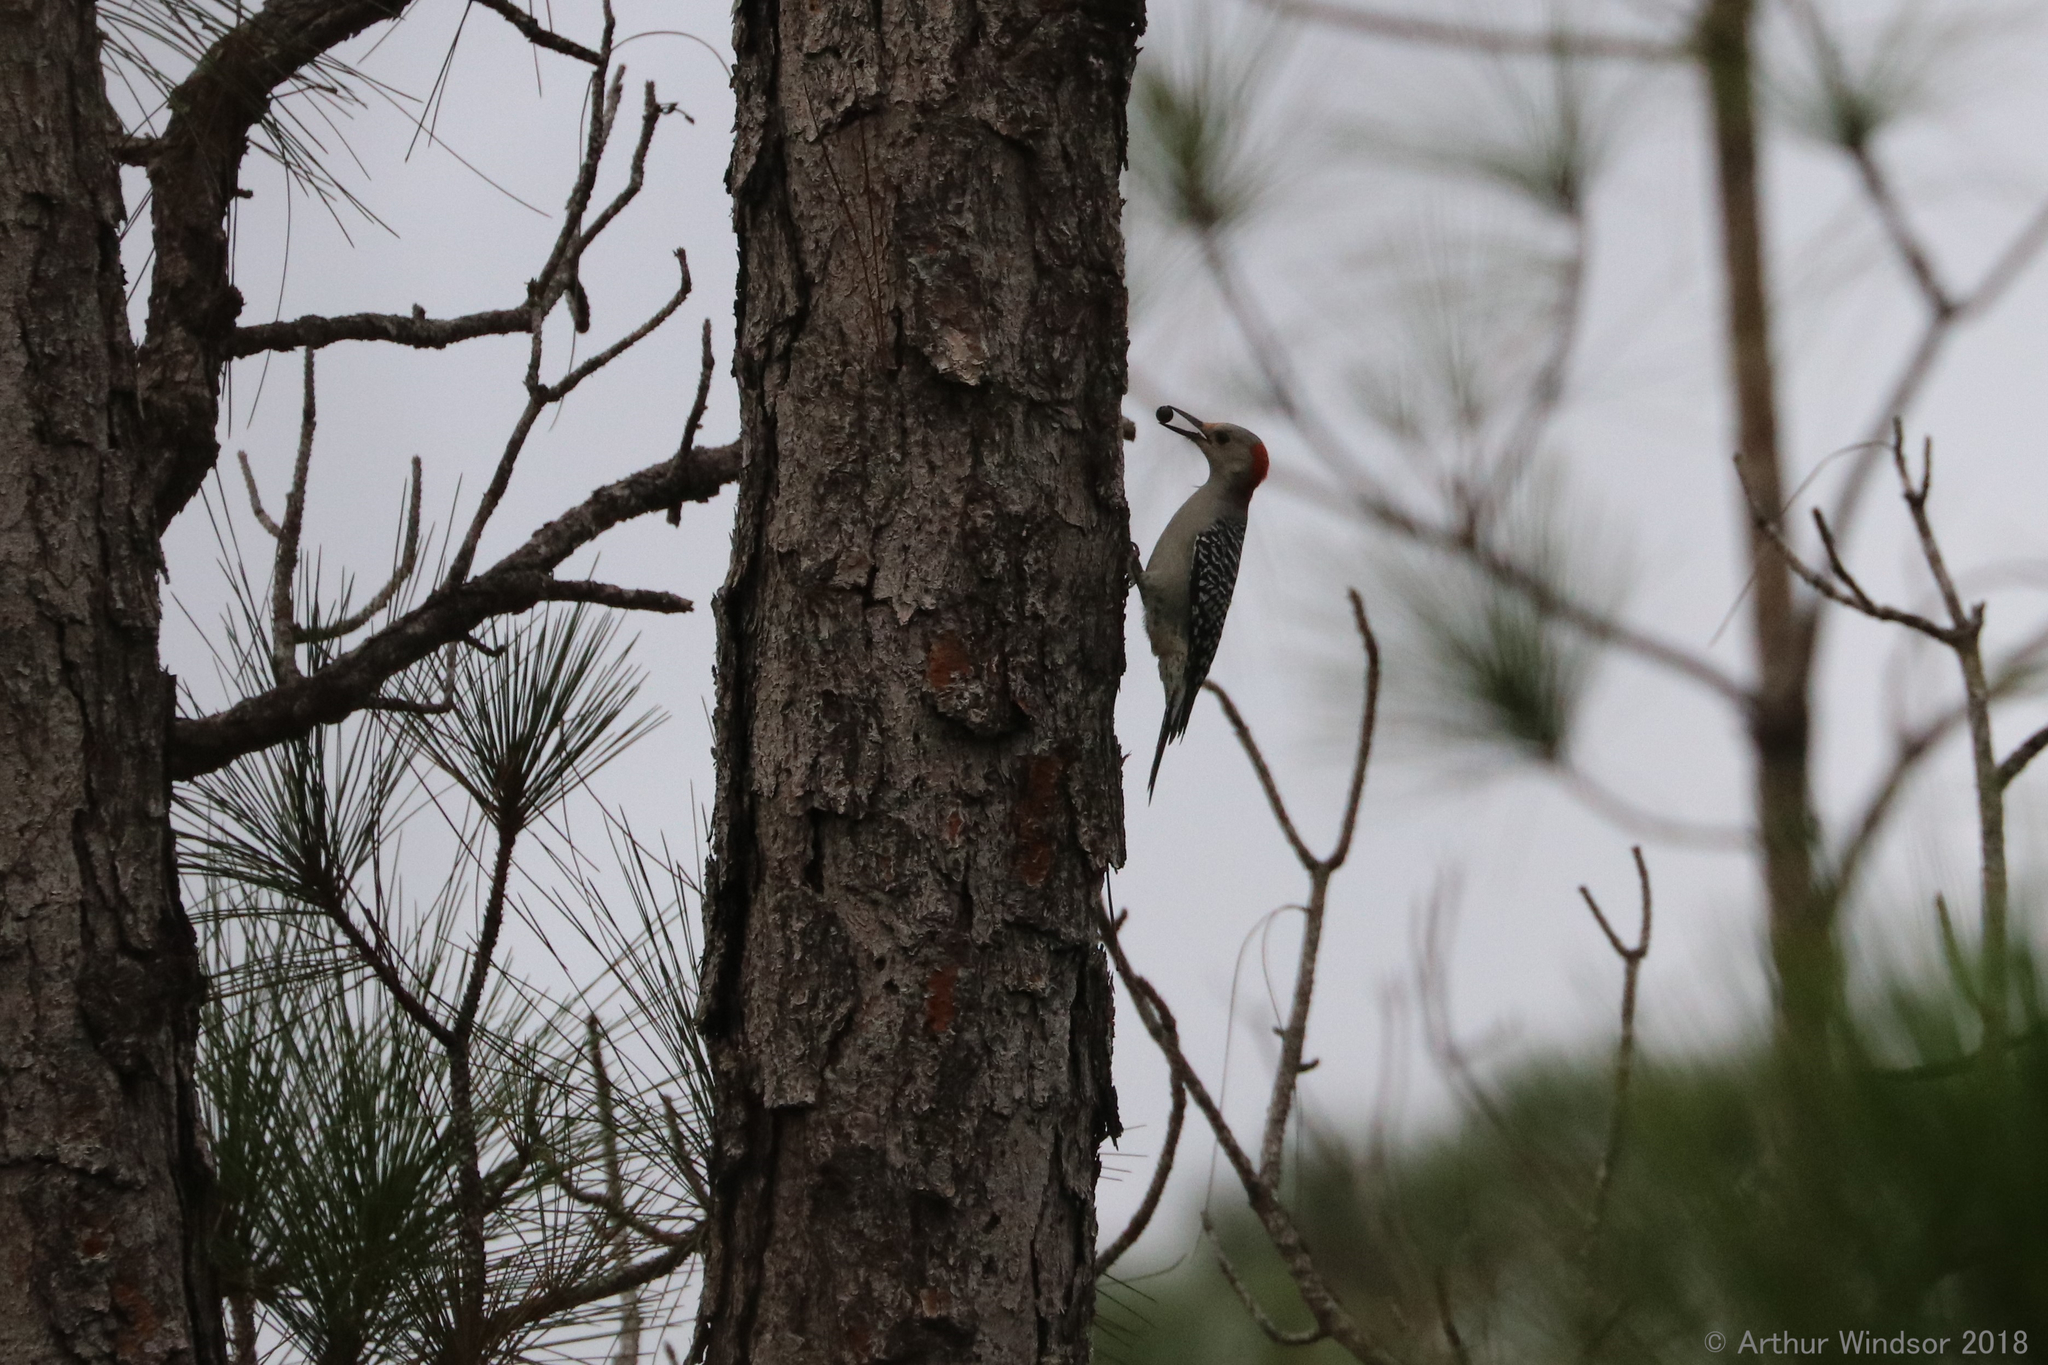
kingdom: Animalia
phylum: Chordata
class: Aves
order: Piciformes
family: Picidae
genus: Melanerpes
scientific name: Melanerpes carolinus
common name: Red-bellied woodpecker
